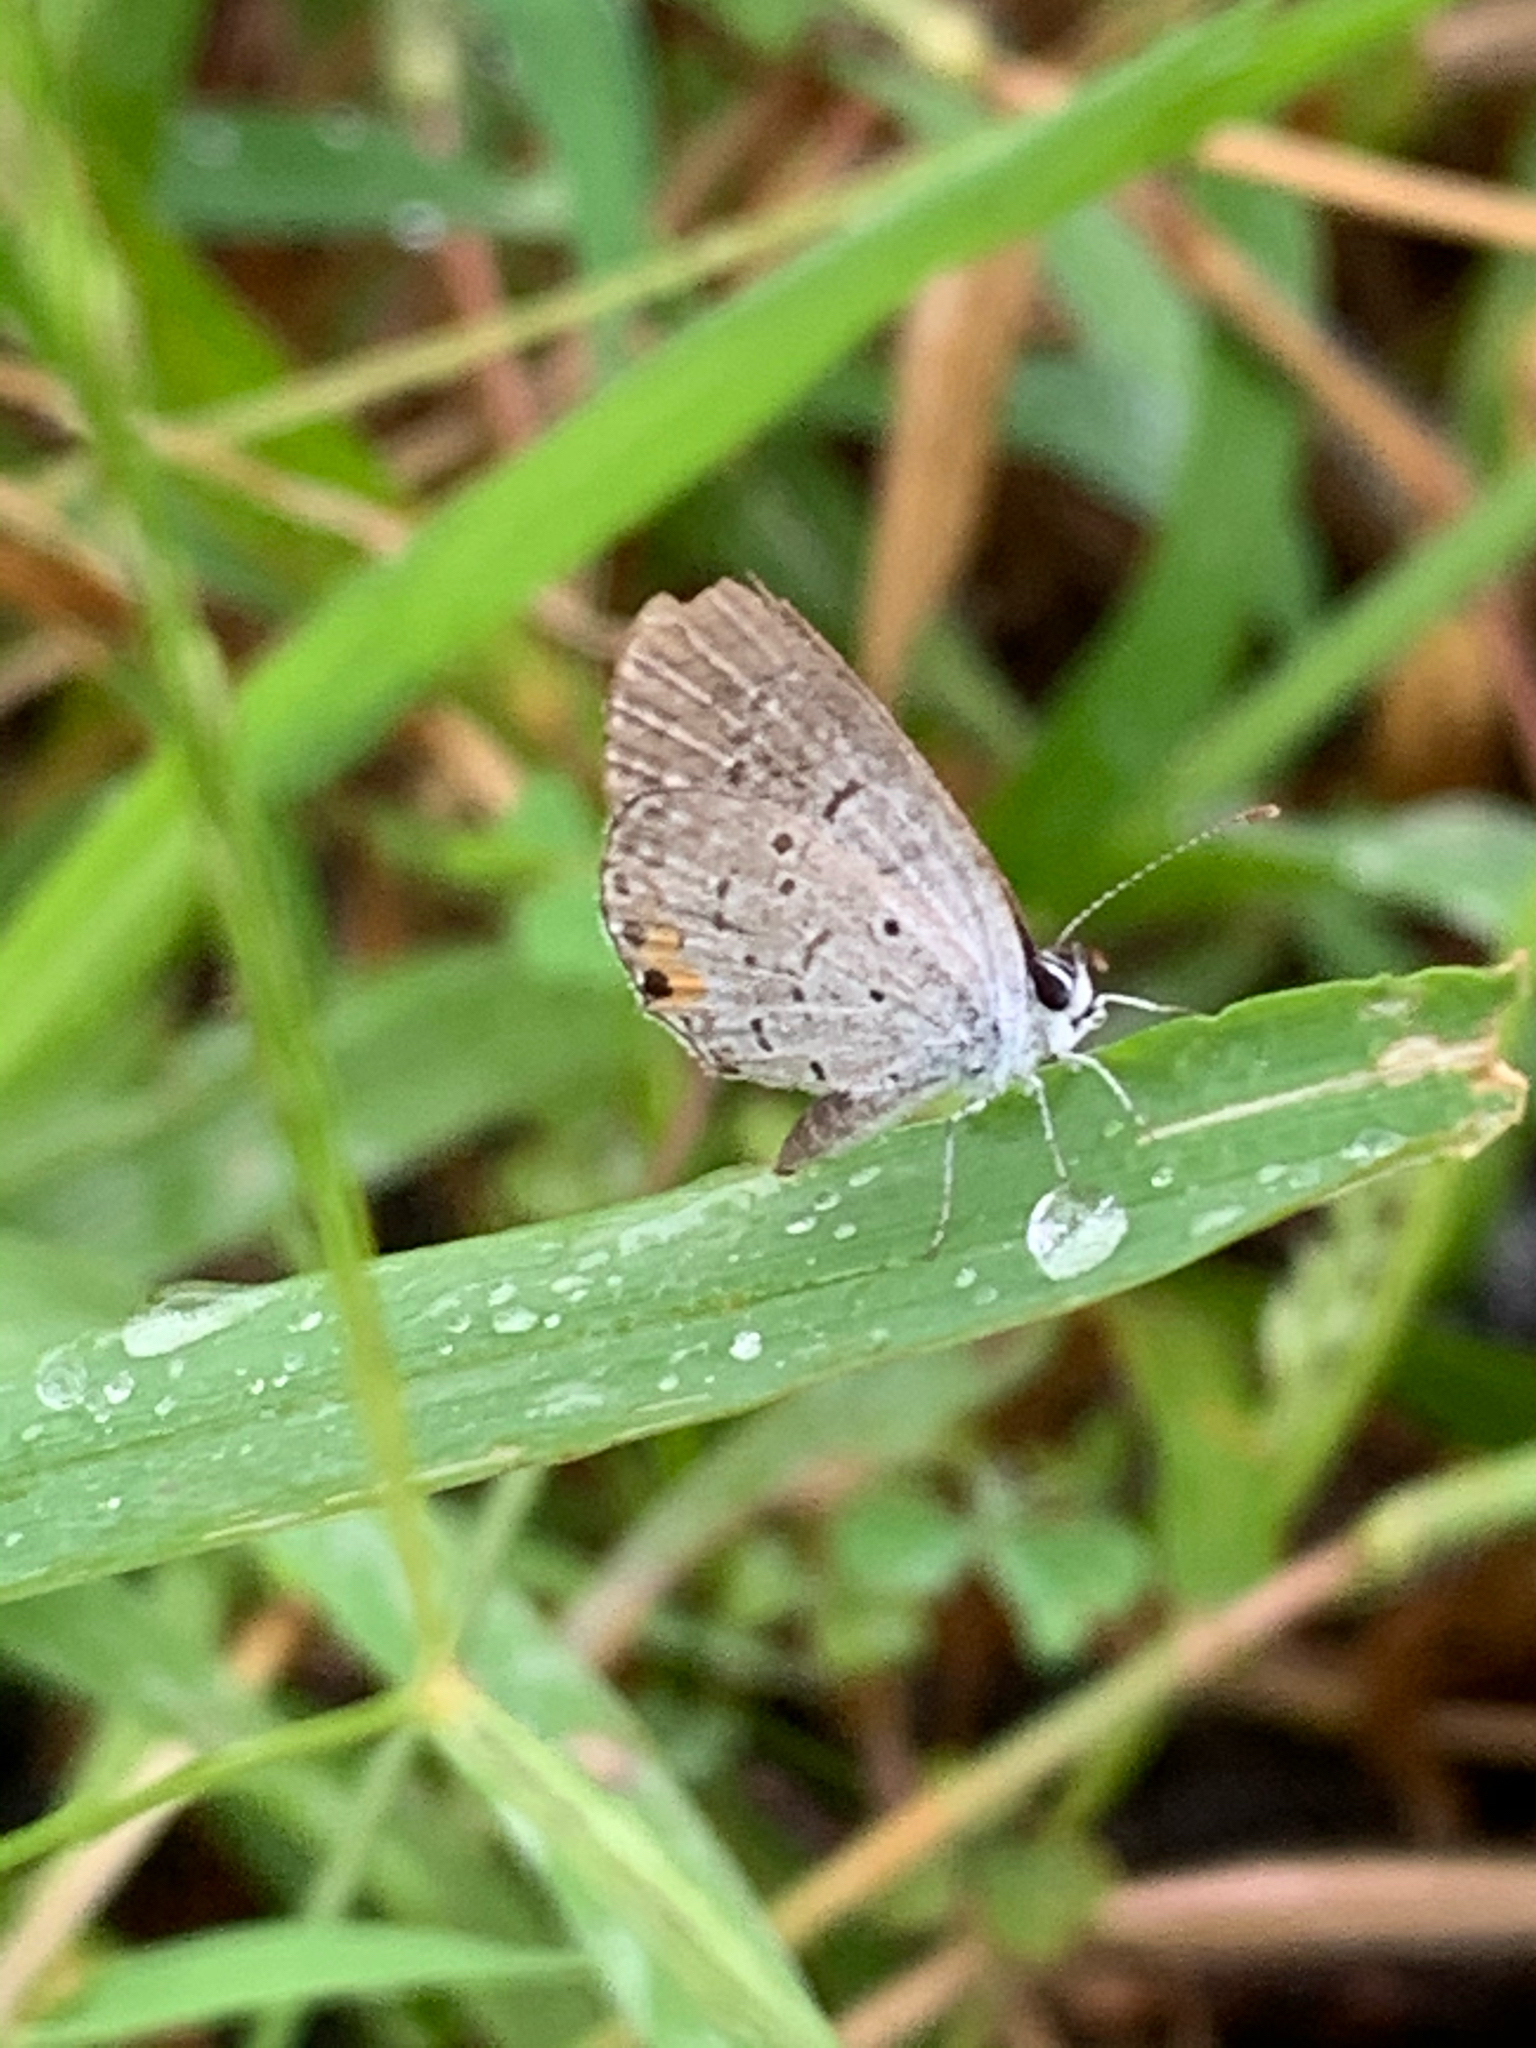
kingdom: Animalia
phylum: Arthropoda
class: Insecta
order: Lepidoptera
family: Lycaenidae
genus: Elkalyce
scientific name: Elkalyce comyntas
